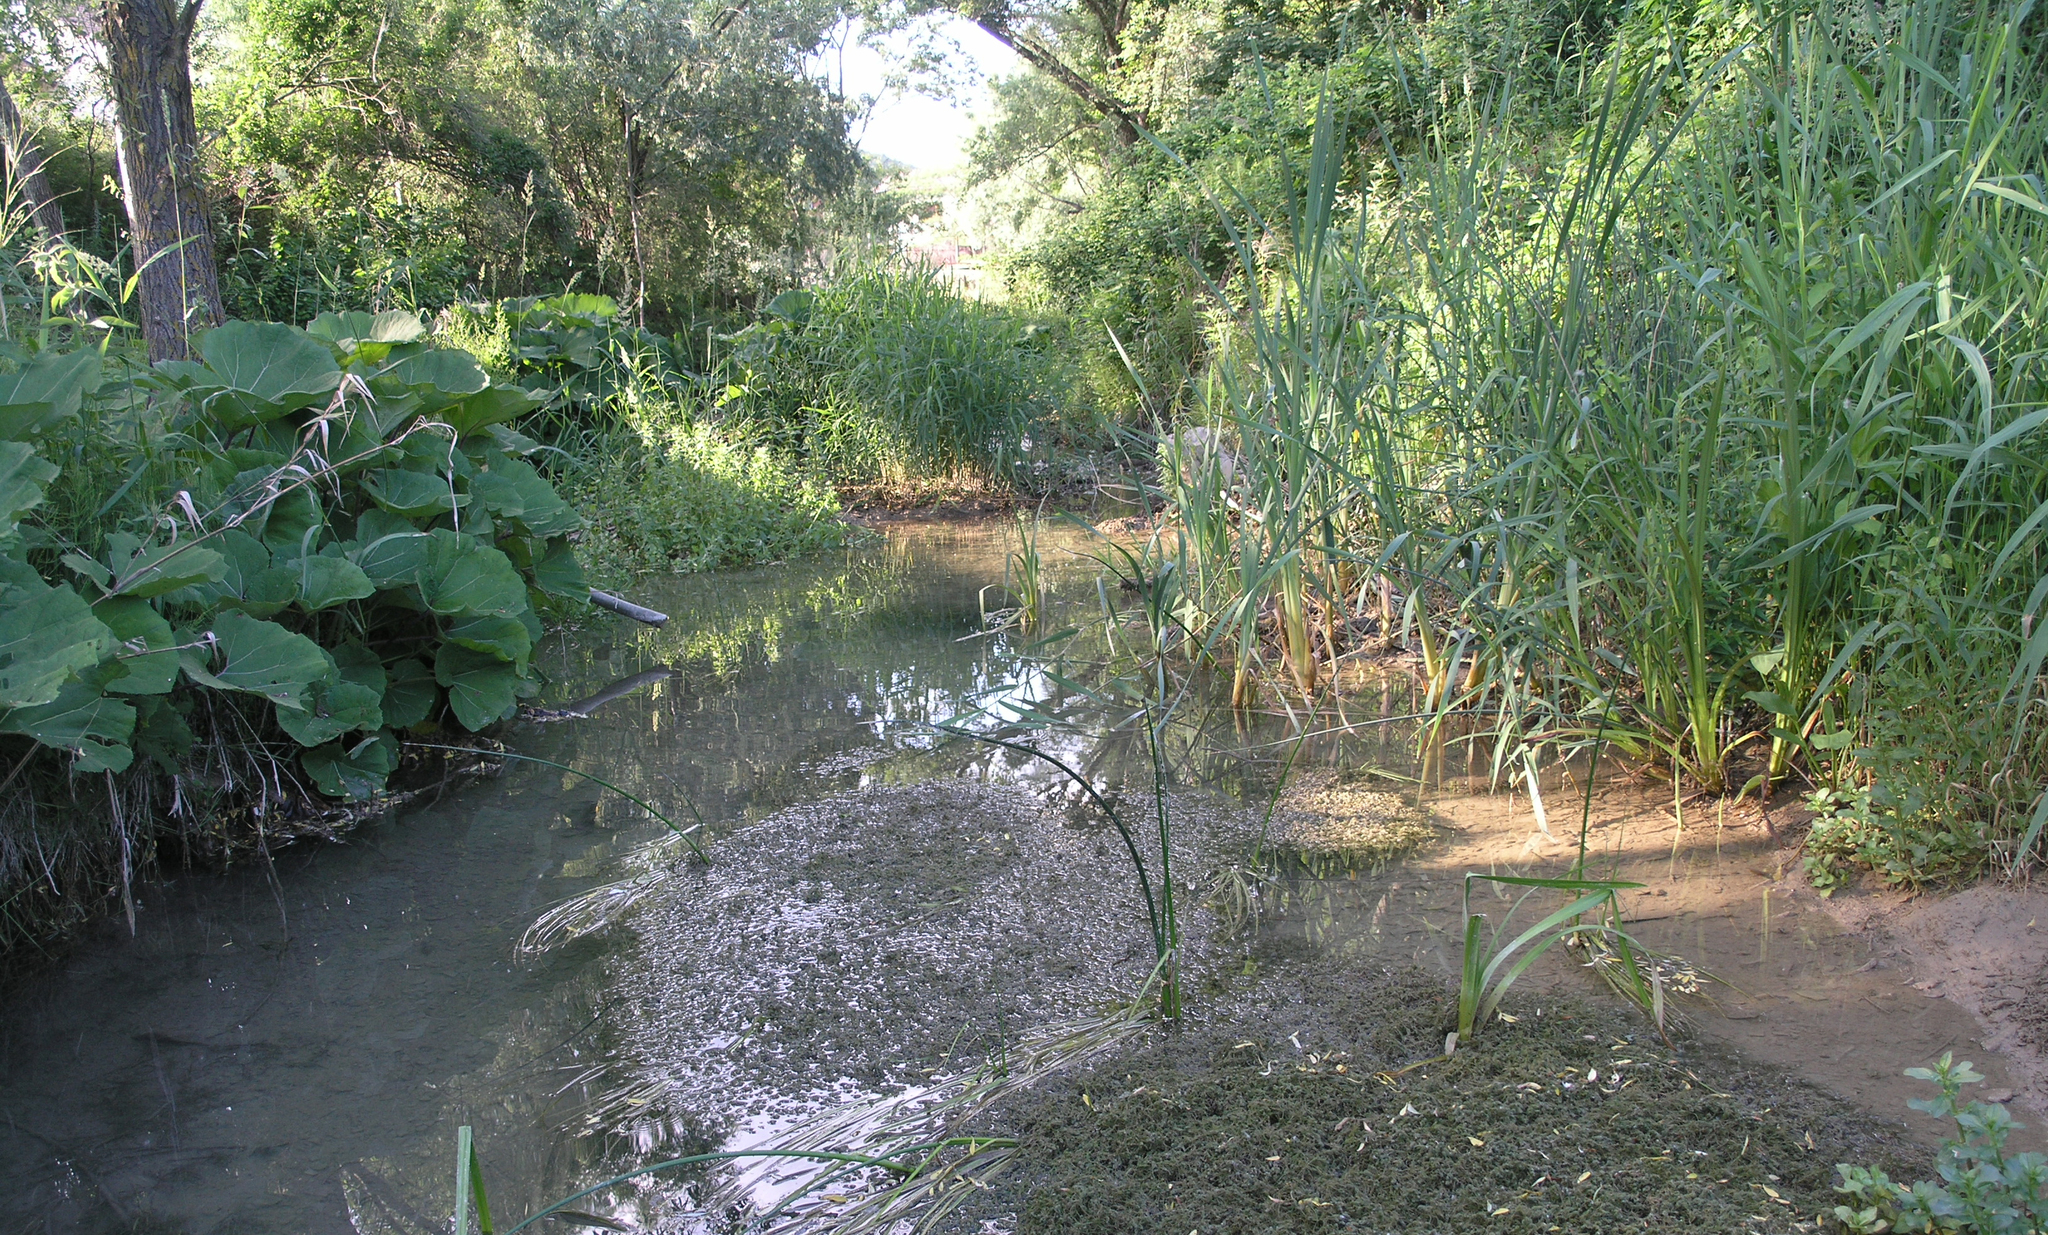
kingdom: Plantae
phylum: Tracheophyta
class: Liliopsida
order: Poales
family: Poaceae
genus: Phragmites
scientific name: Phragmites australis
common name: Common reed
